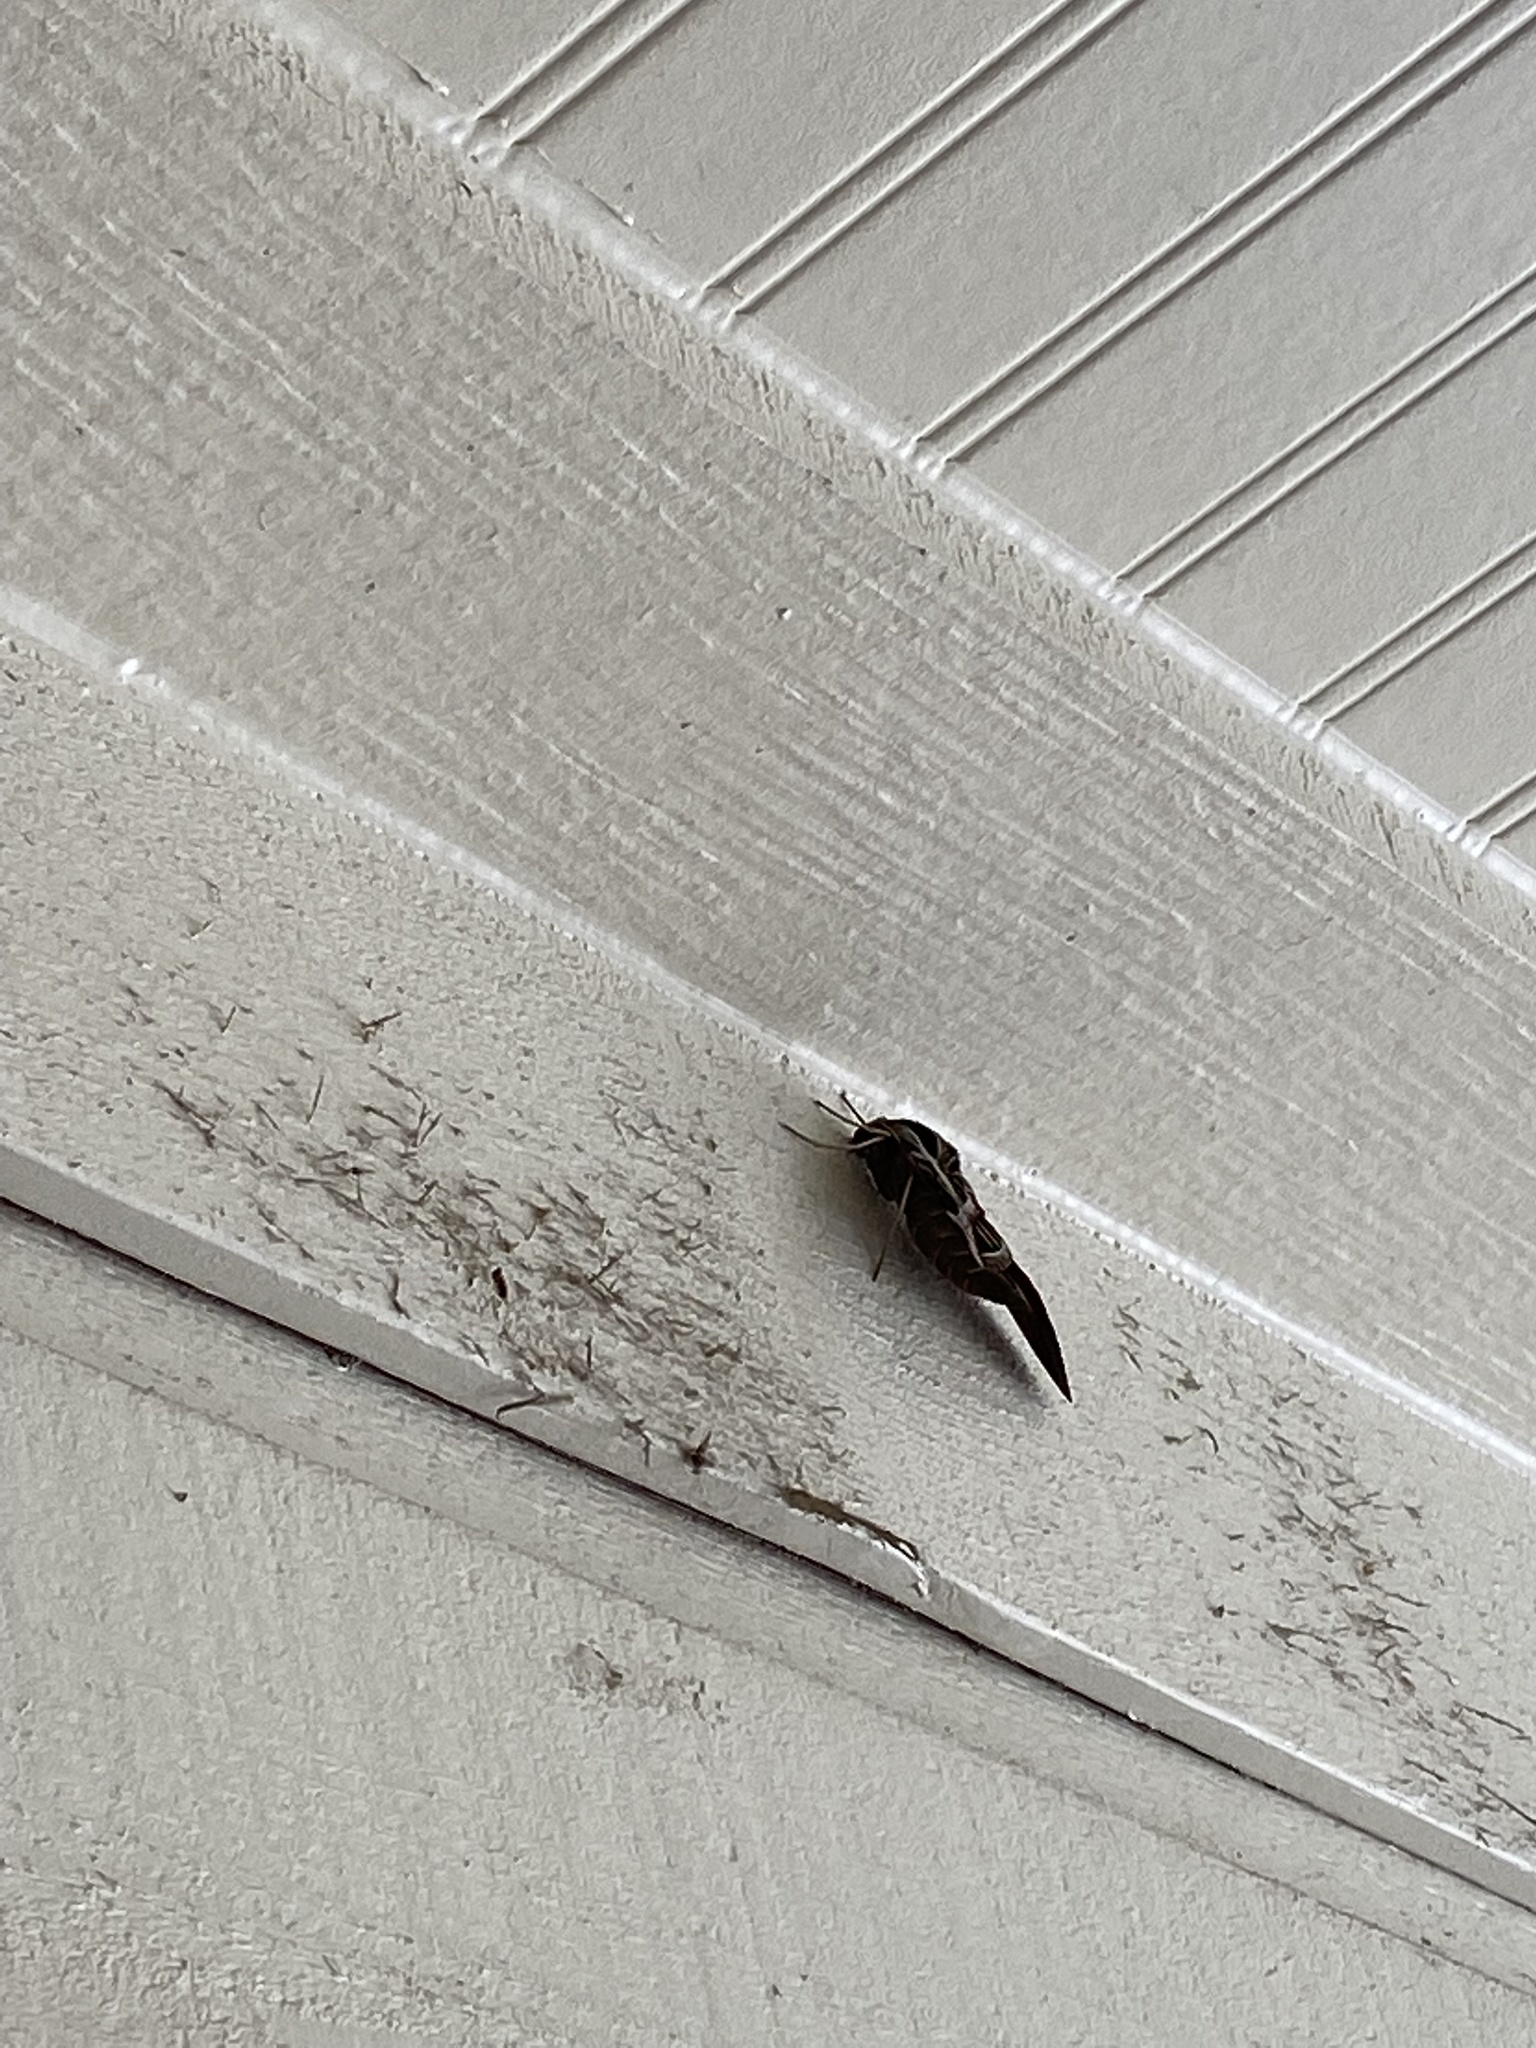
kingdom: Animalia
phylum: Arthropoda
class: Insecta
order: Lepidoptera
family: Sphingidae
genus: Eumorpha
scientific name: Eumorpha vitis
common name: Vine sphinx
